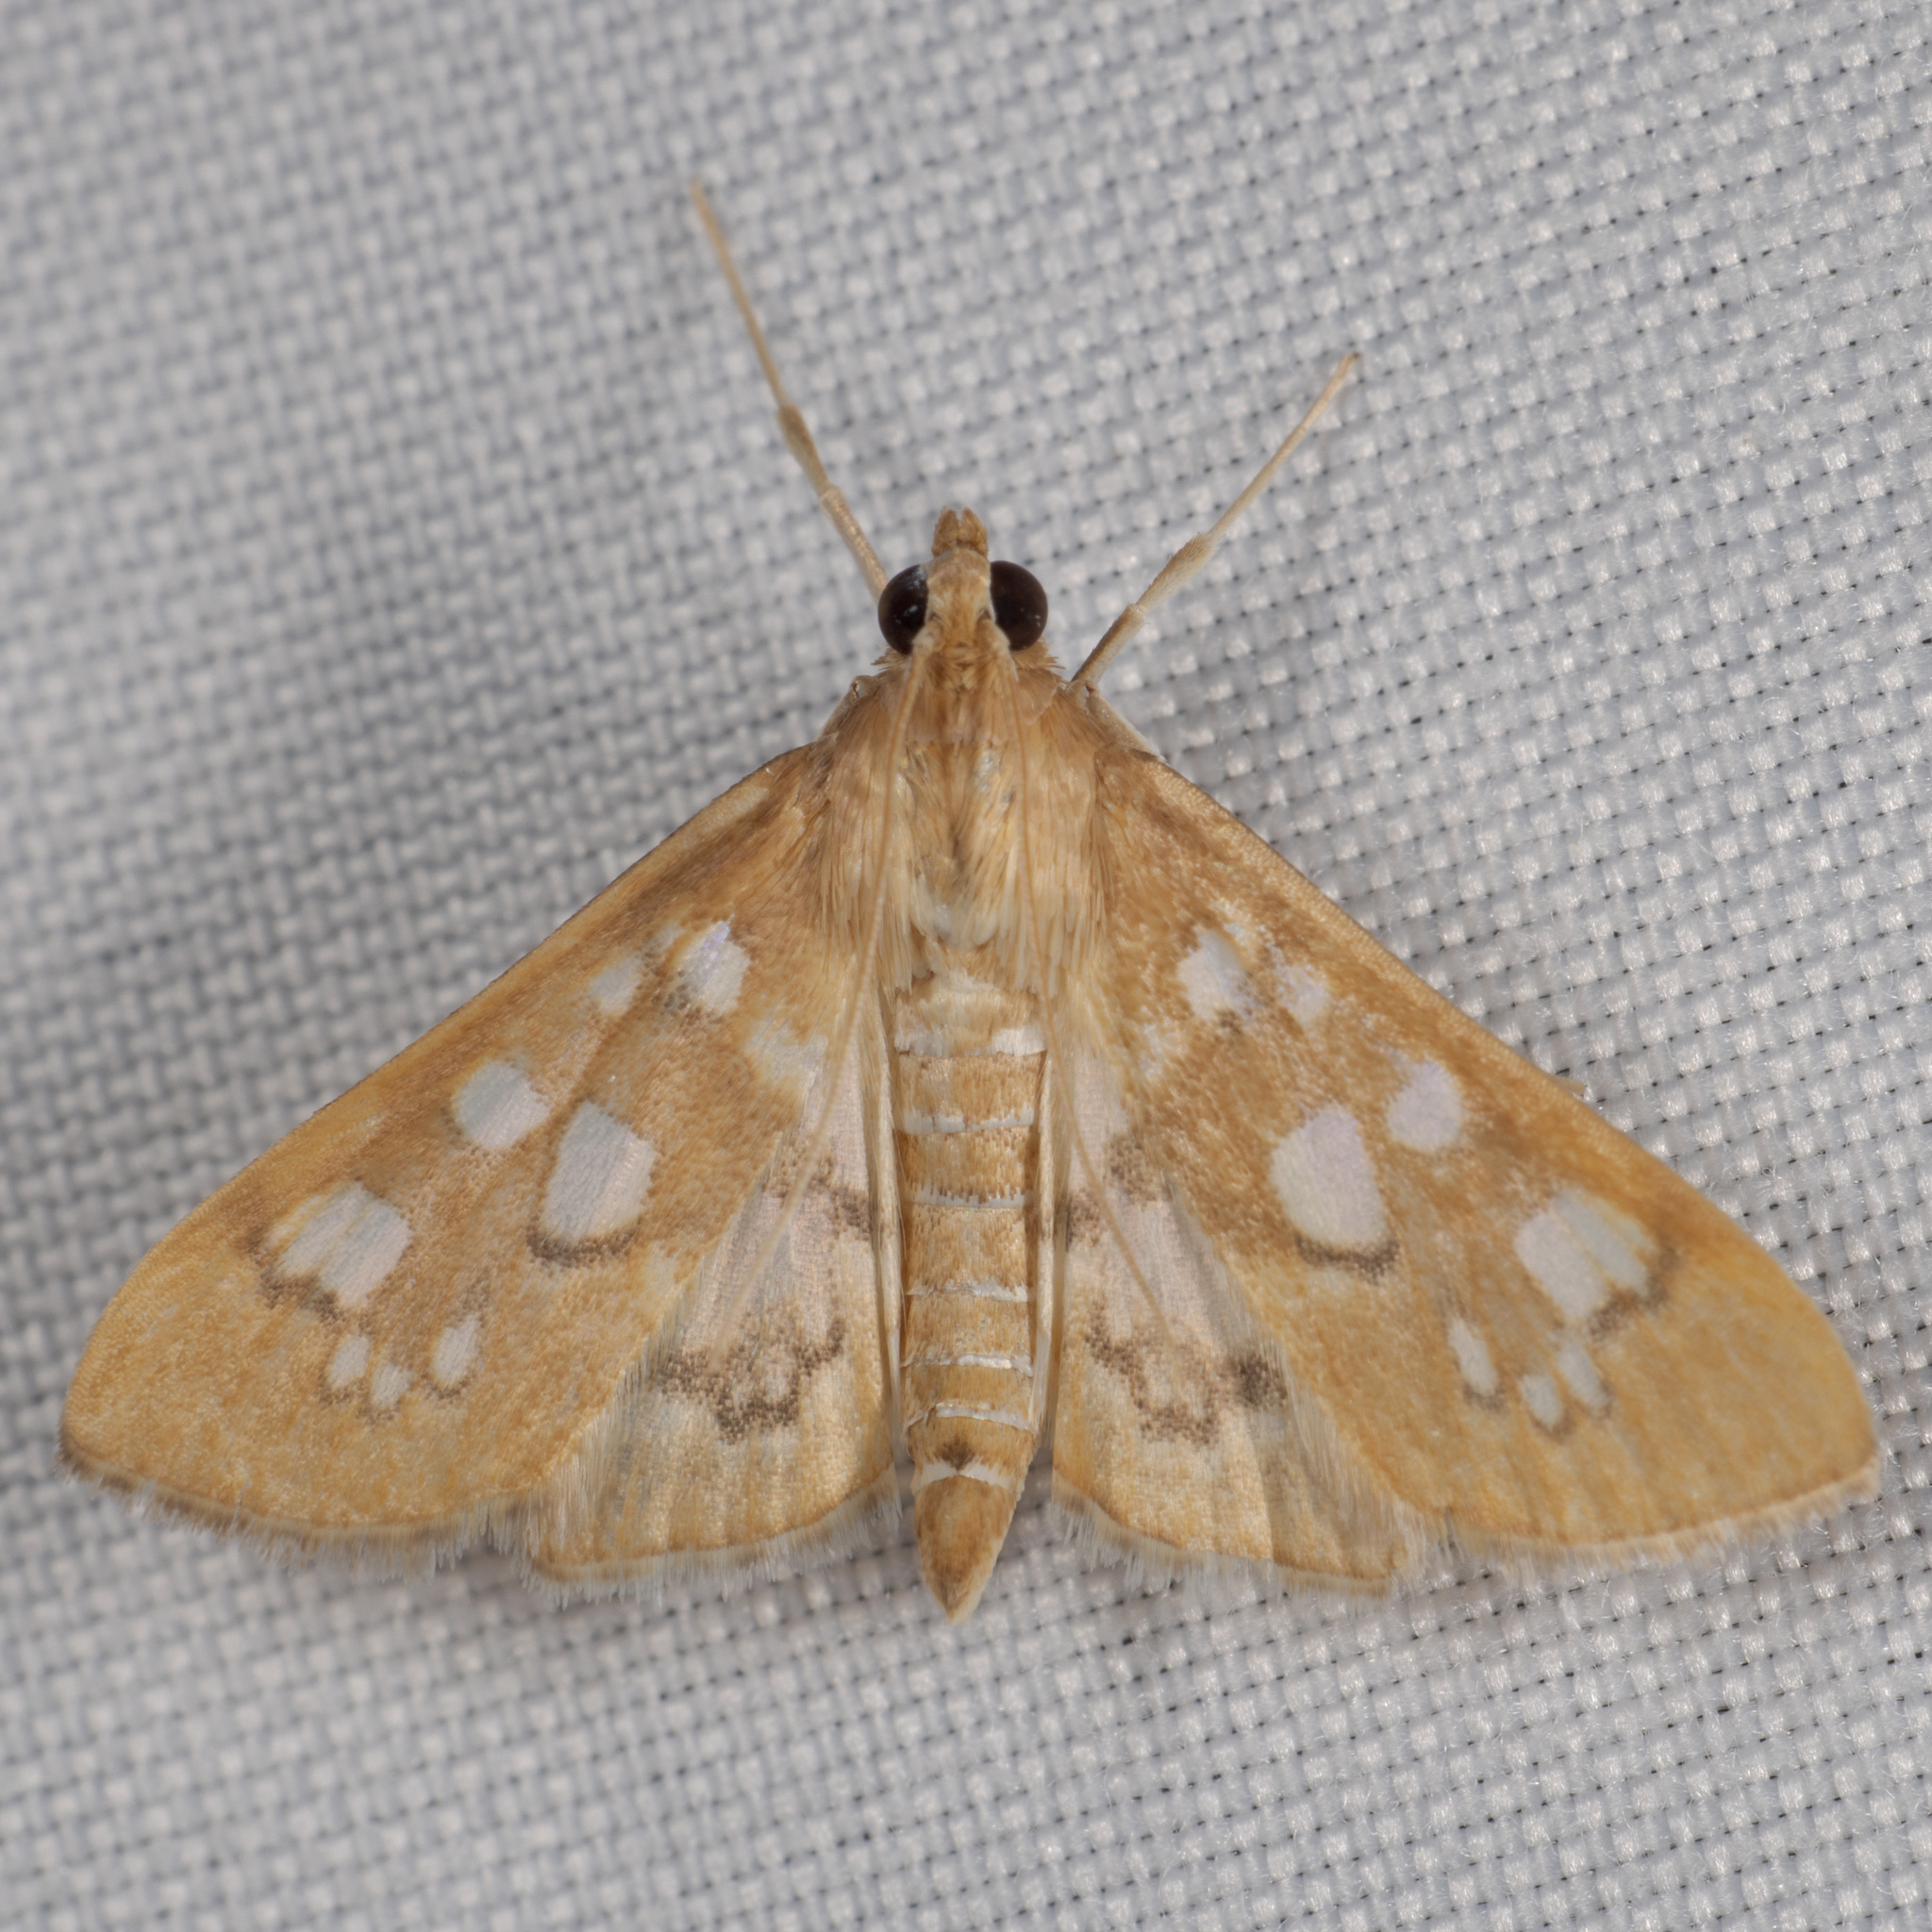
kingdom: Animalia
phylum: Arthropoda
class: Insecta
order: Lepidoptera
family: Crambidae
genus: Samea
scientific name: Samea baccatalis
